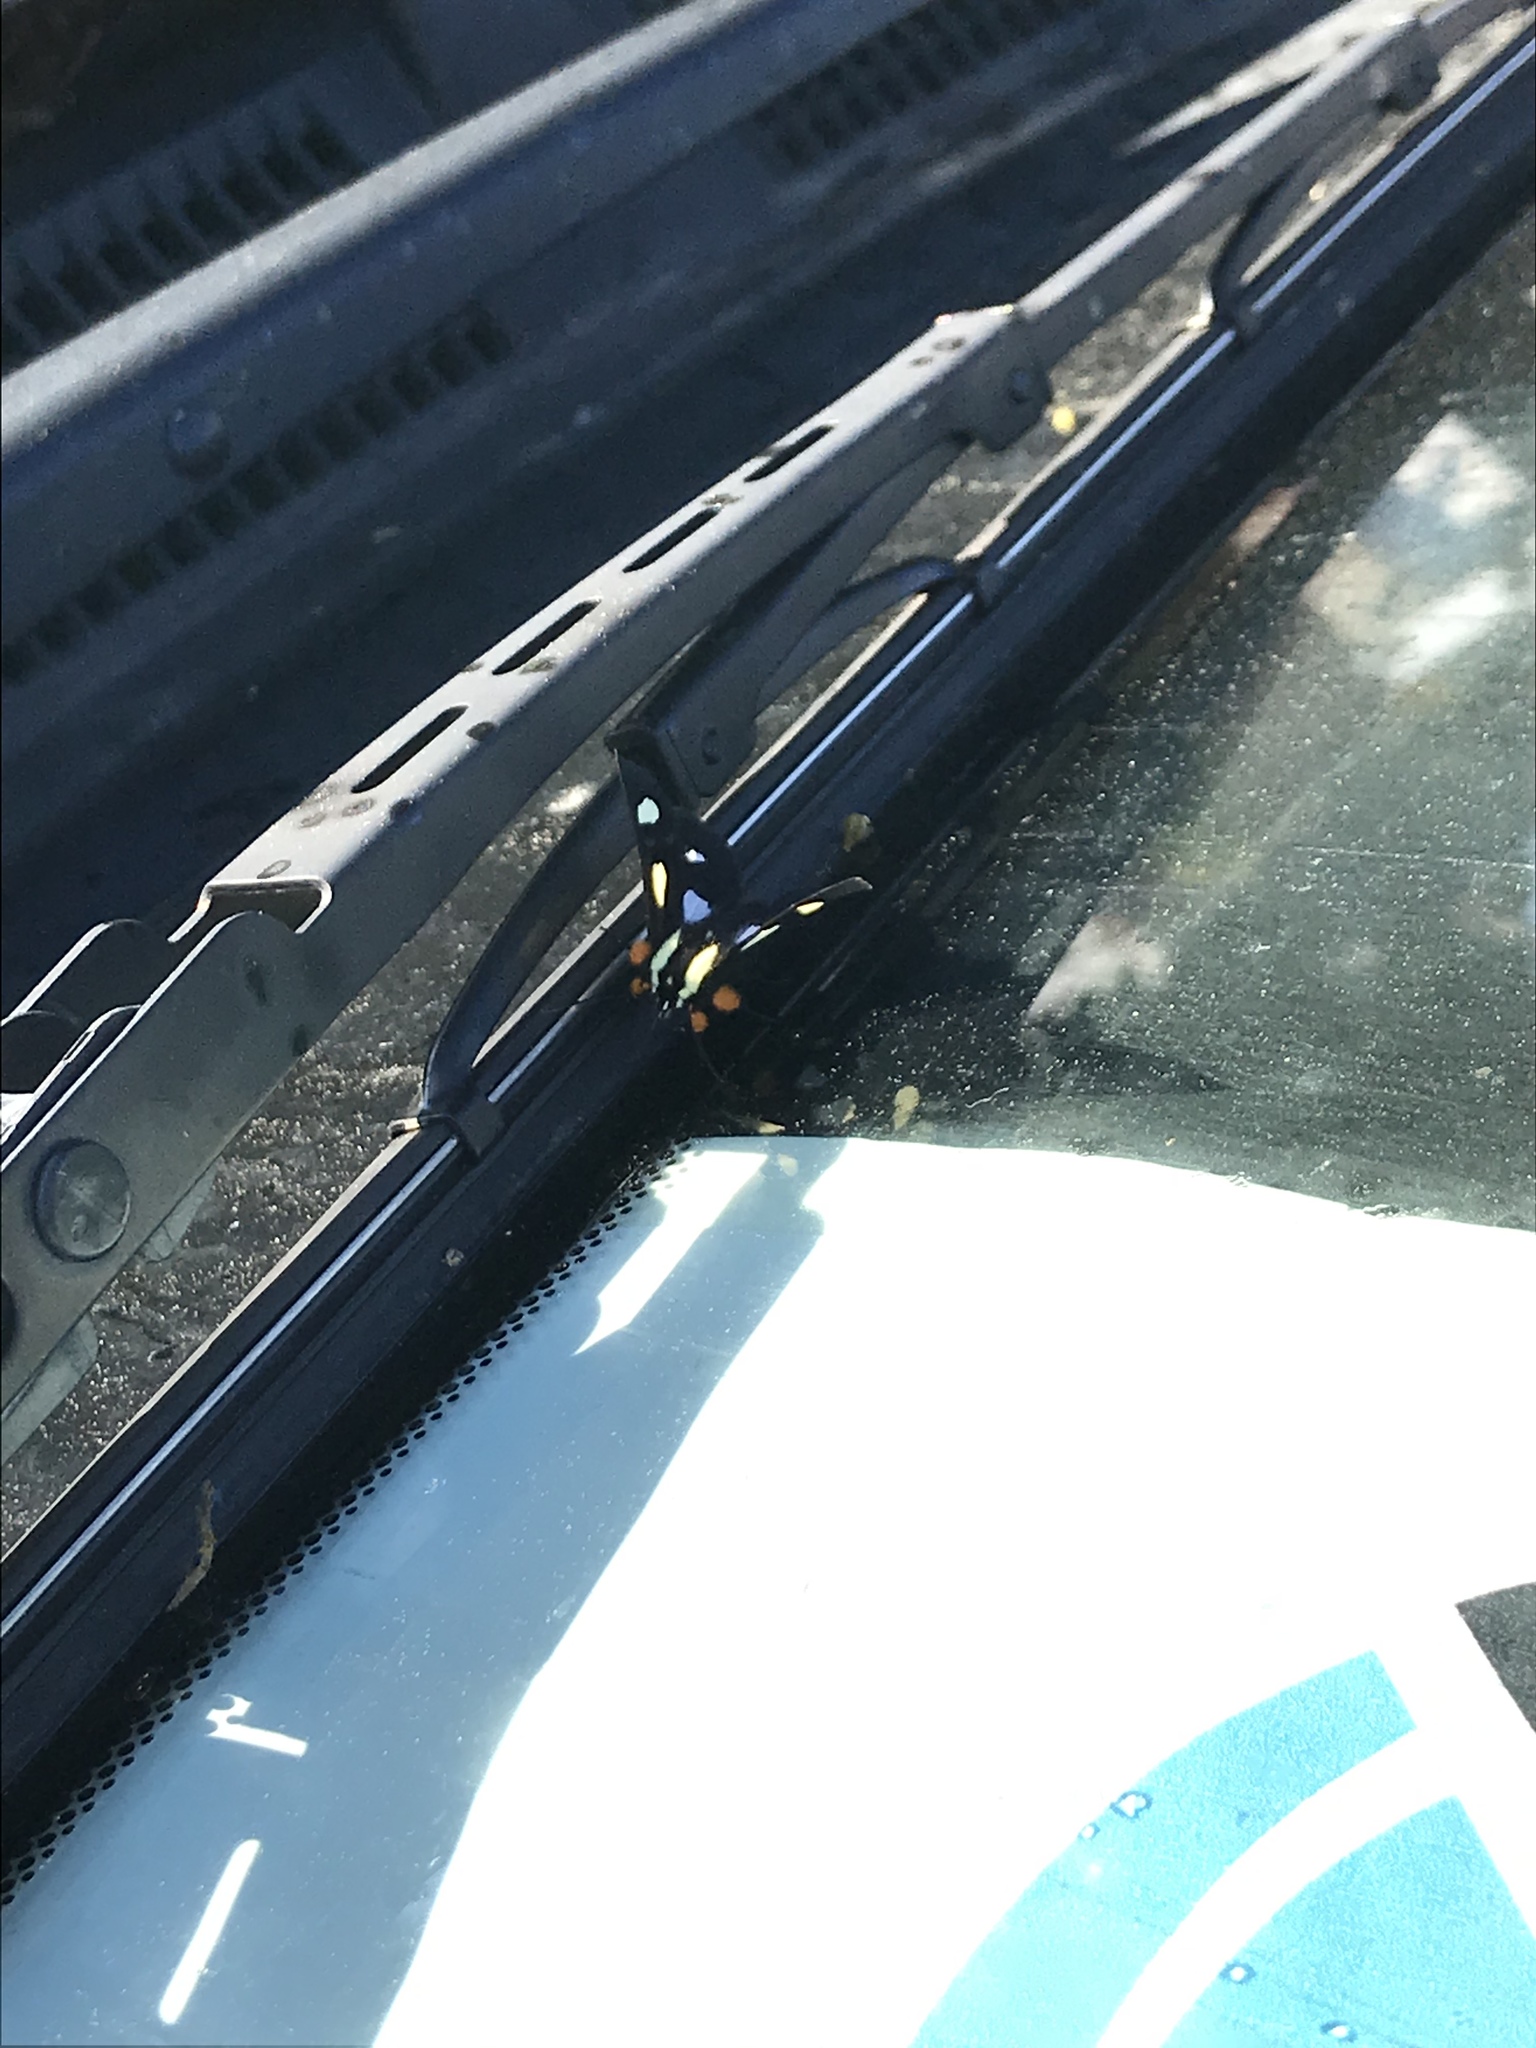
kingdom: Animalia
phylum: Arthropoda
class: Insecta
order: Lepidoptera
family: Noctuidae
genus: Alypia
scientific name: Alypia octomaculata
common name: Eight-spotted forester
